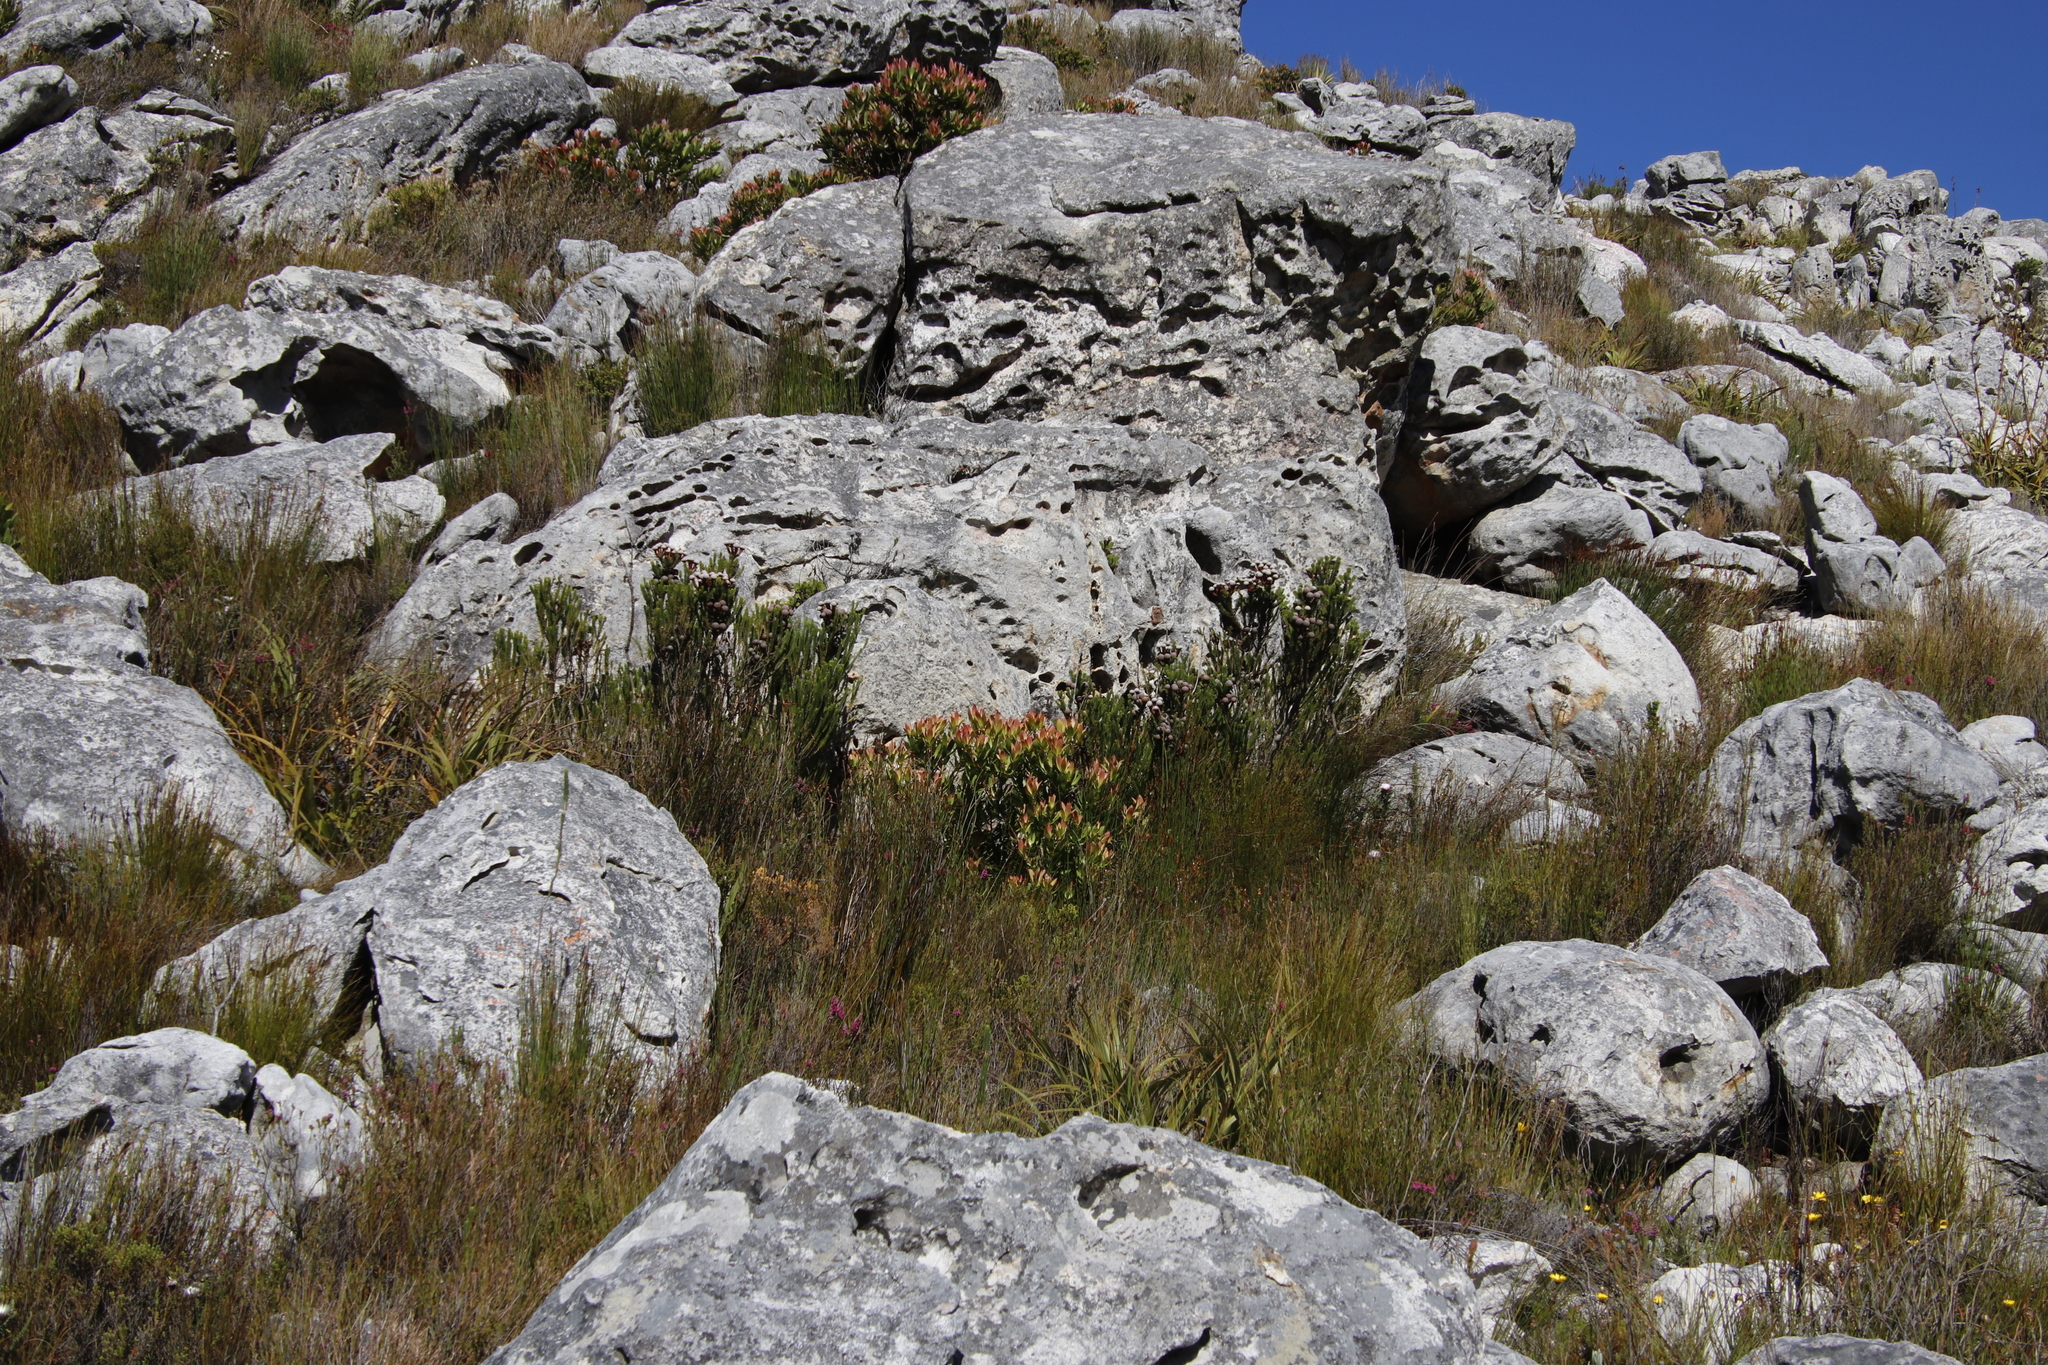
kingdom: Plantae
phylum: Tracheophyta
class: Magnoliopsida
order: Proteales
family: Proteaceae
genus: Leucadendron
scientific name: Leucadendron gandogeri
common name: Broad-leaf conebush
